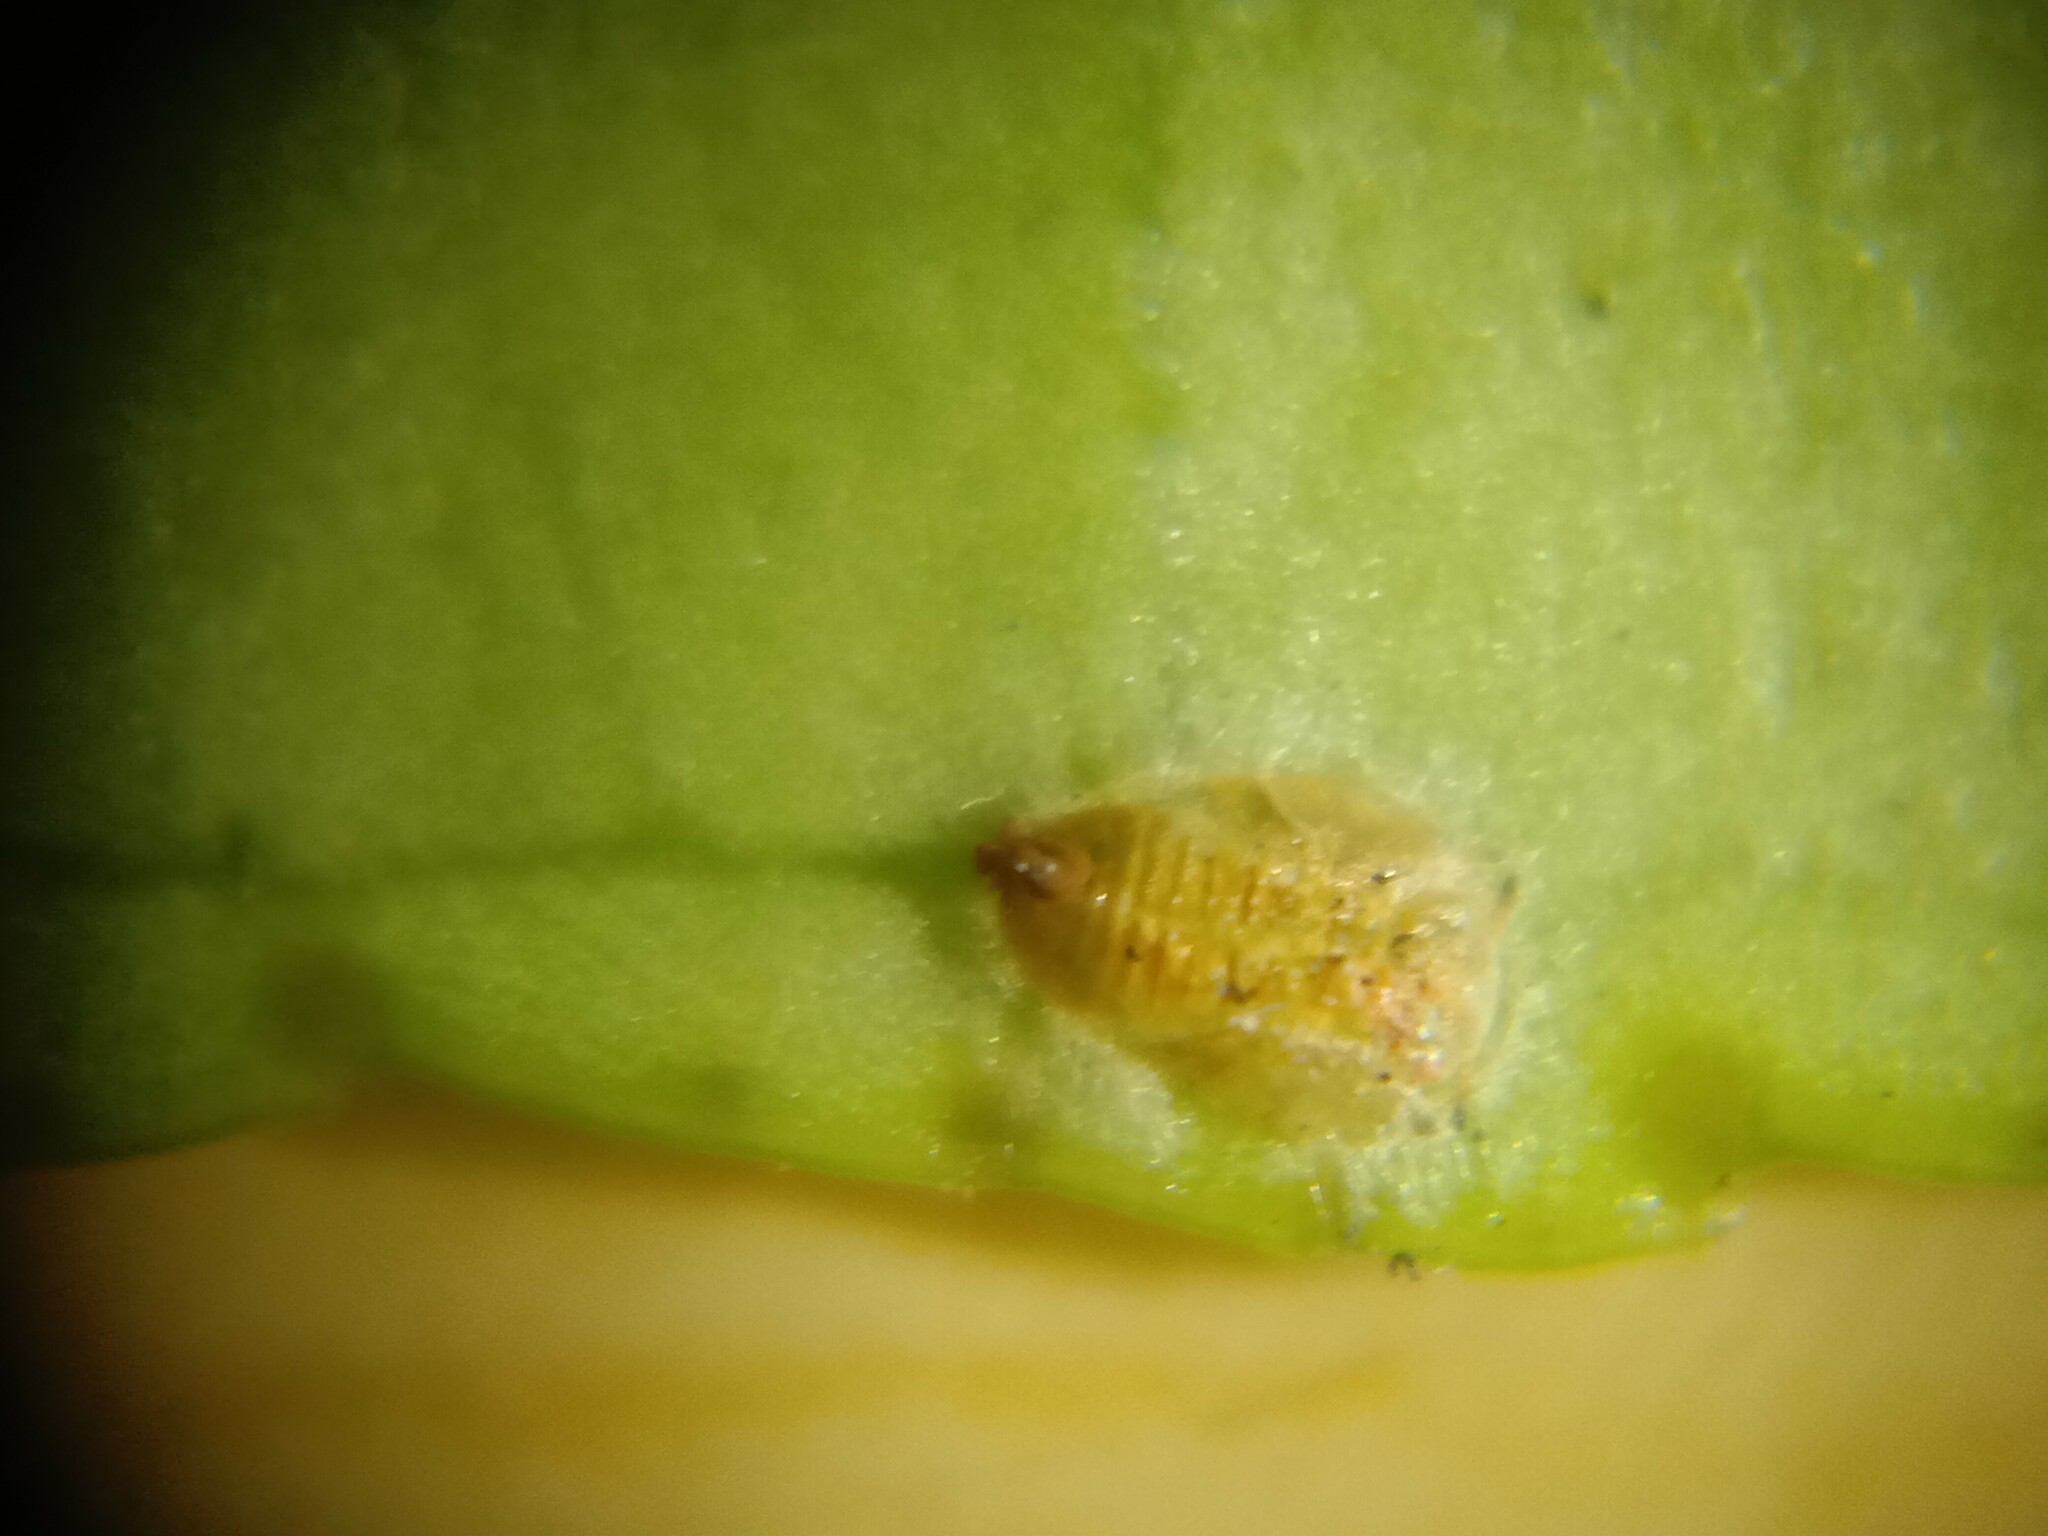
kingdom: Animalia
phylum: Arthropoda
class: Insecta
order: Hemiptera
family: Liviidae
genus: Diaphorina
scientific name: Diaphorina citri
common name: Asian citrus psyllid
